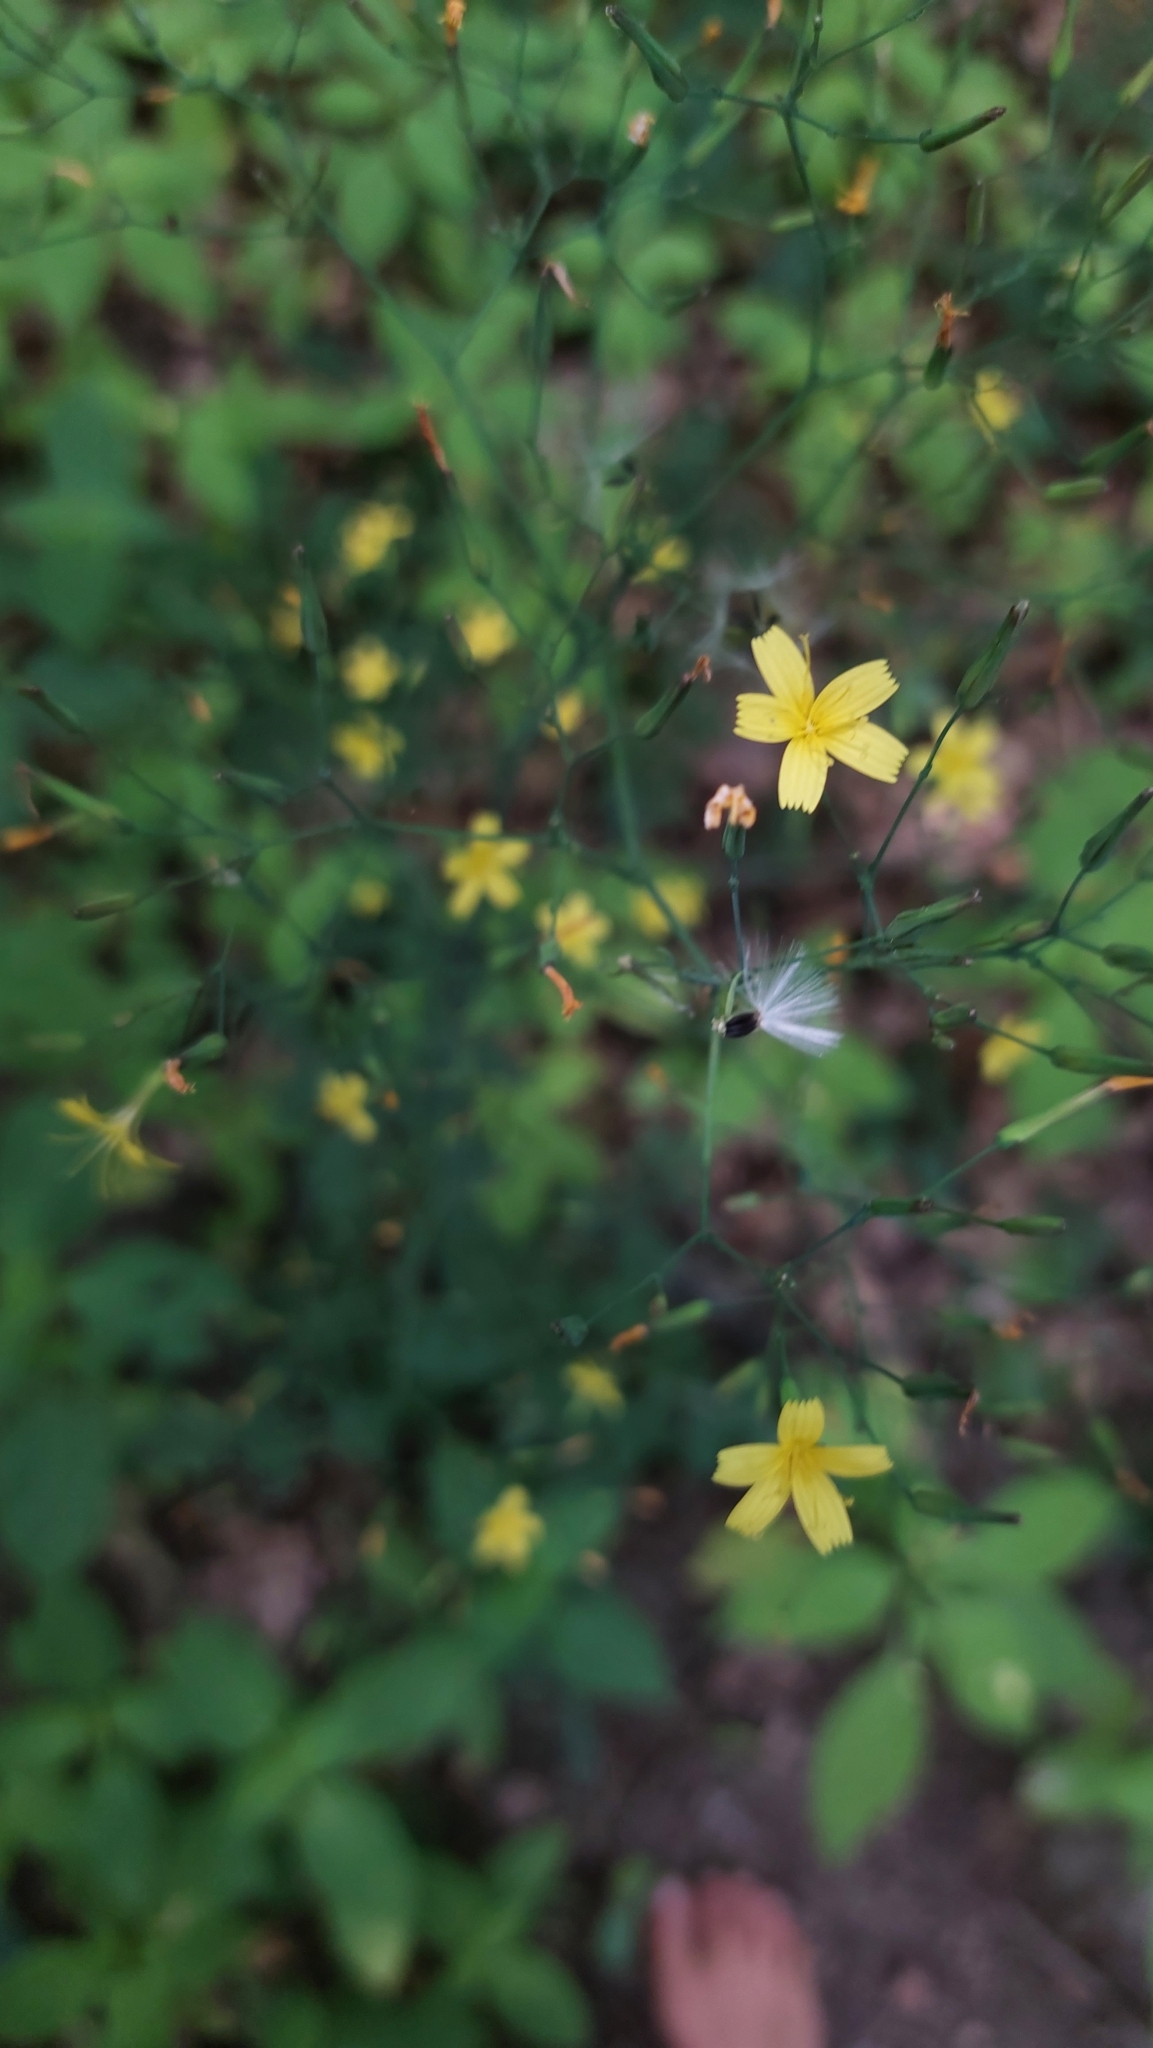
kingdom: Plantae
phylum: Tracheophyta
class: Magnoliopsida
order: Asterales
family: Asteraceae
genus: Mycelis
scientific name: Mycelis muralis
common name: Wall lettuce
